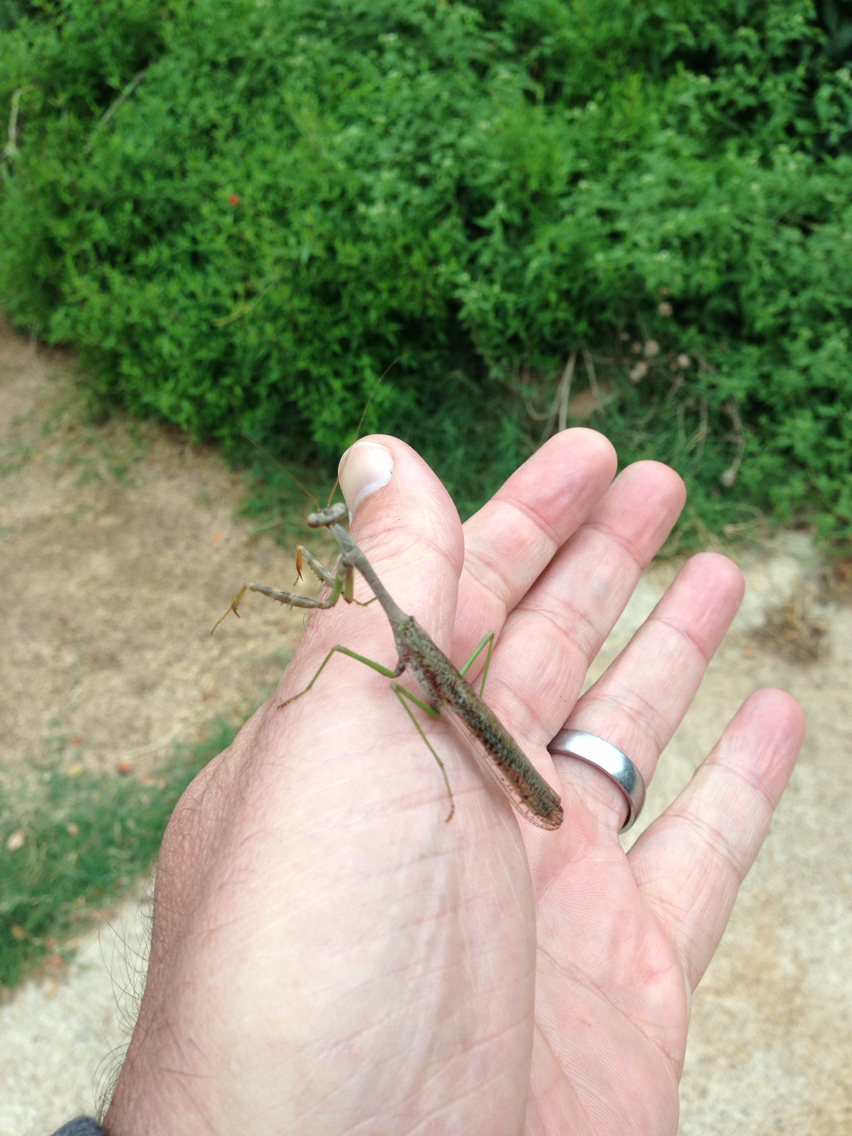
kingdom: Animalia
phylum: Arthropoda
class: Insecta
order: Mantodea
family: Mantidae
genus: Stagmomantis
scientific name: Stagmomantis carolina
